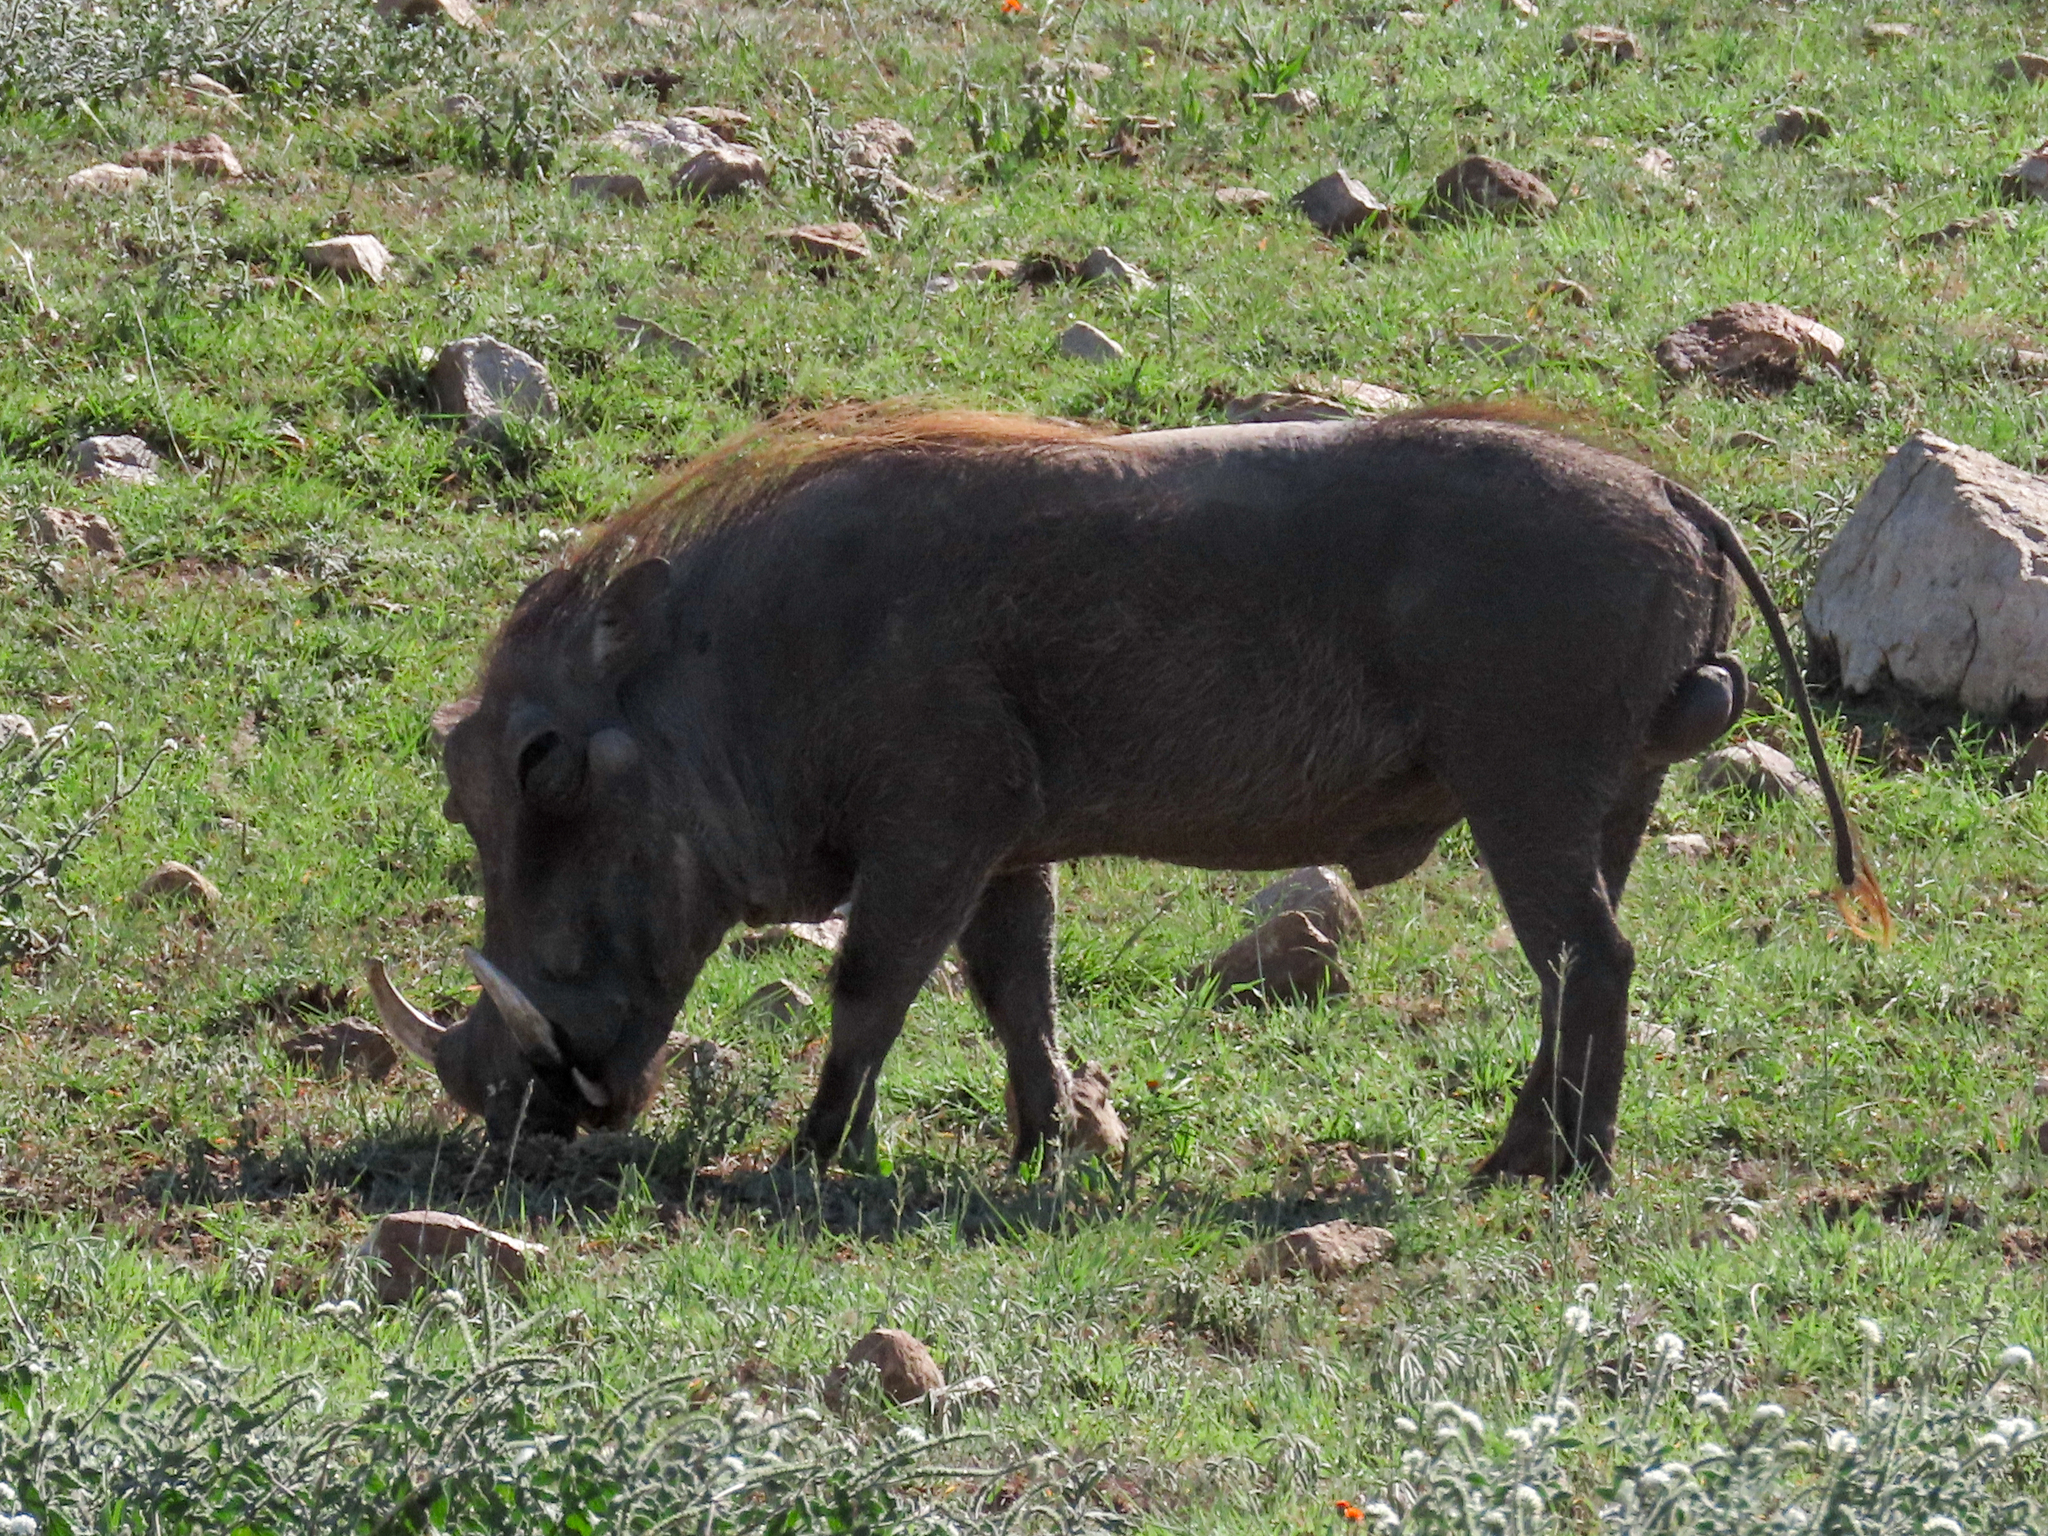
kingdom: Animalia
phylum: Chordata
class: Mammalia
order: Artiodactyla
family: Suidae
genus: Phacochoerus
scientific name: Phacochoerus africanus
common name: Common warthog
